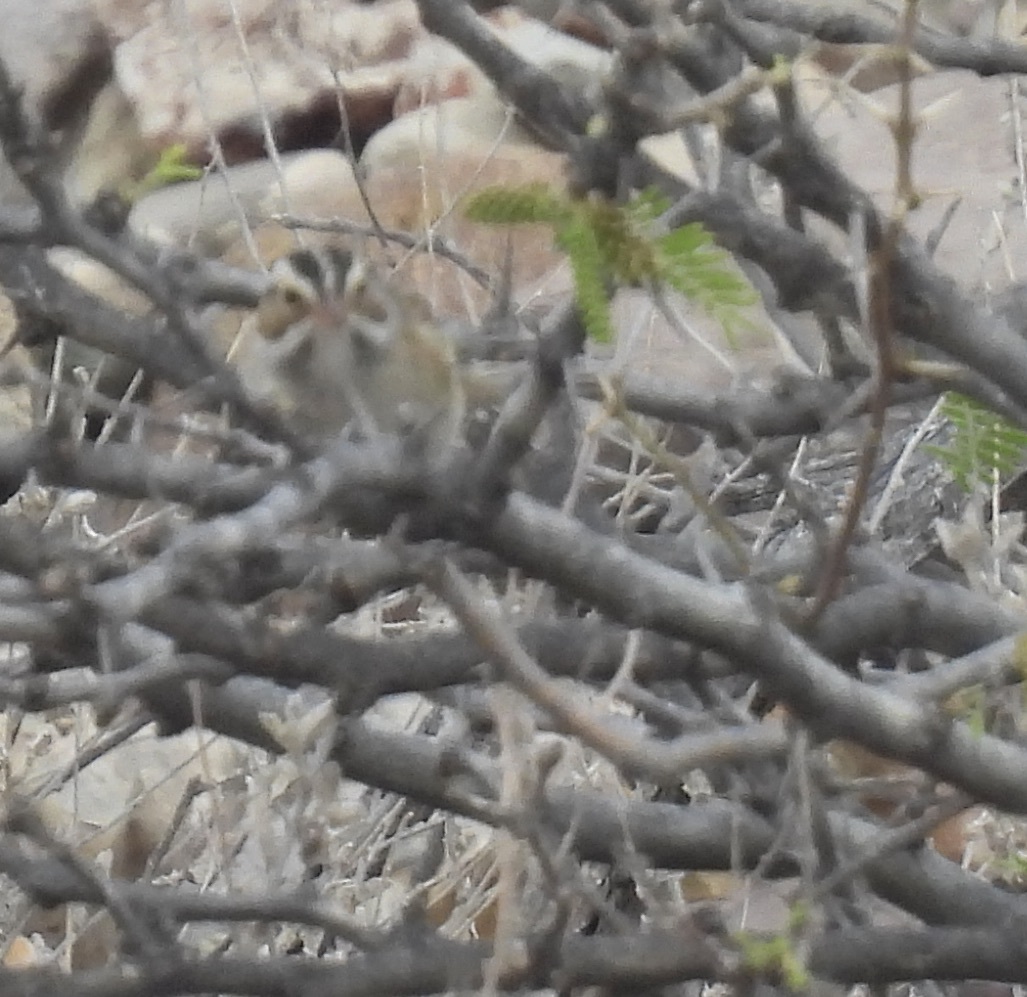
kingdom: Animalia
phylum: Chordata
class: Aves
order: Passeriformes
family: Passerellidae
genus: Spizella
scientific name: Spizella pallida
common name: Clay-colored sparrow
